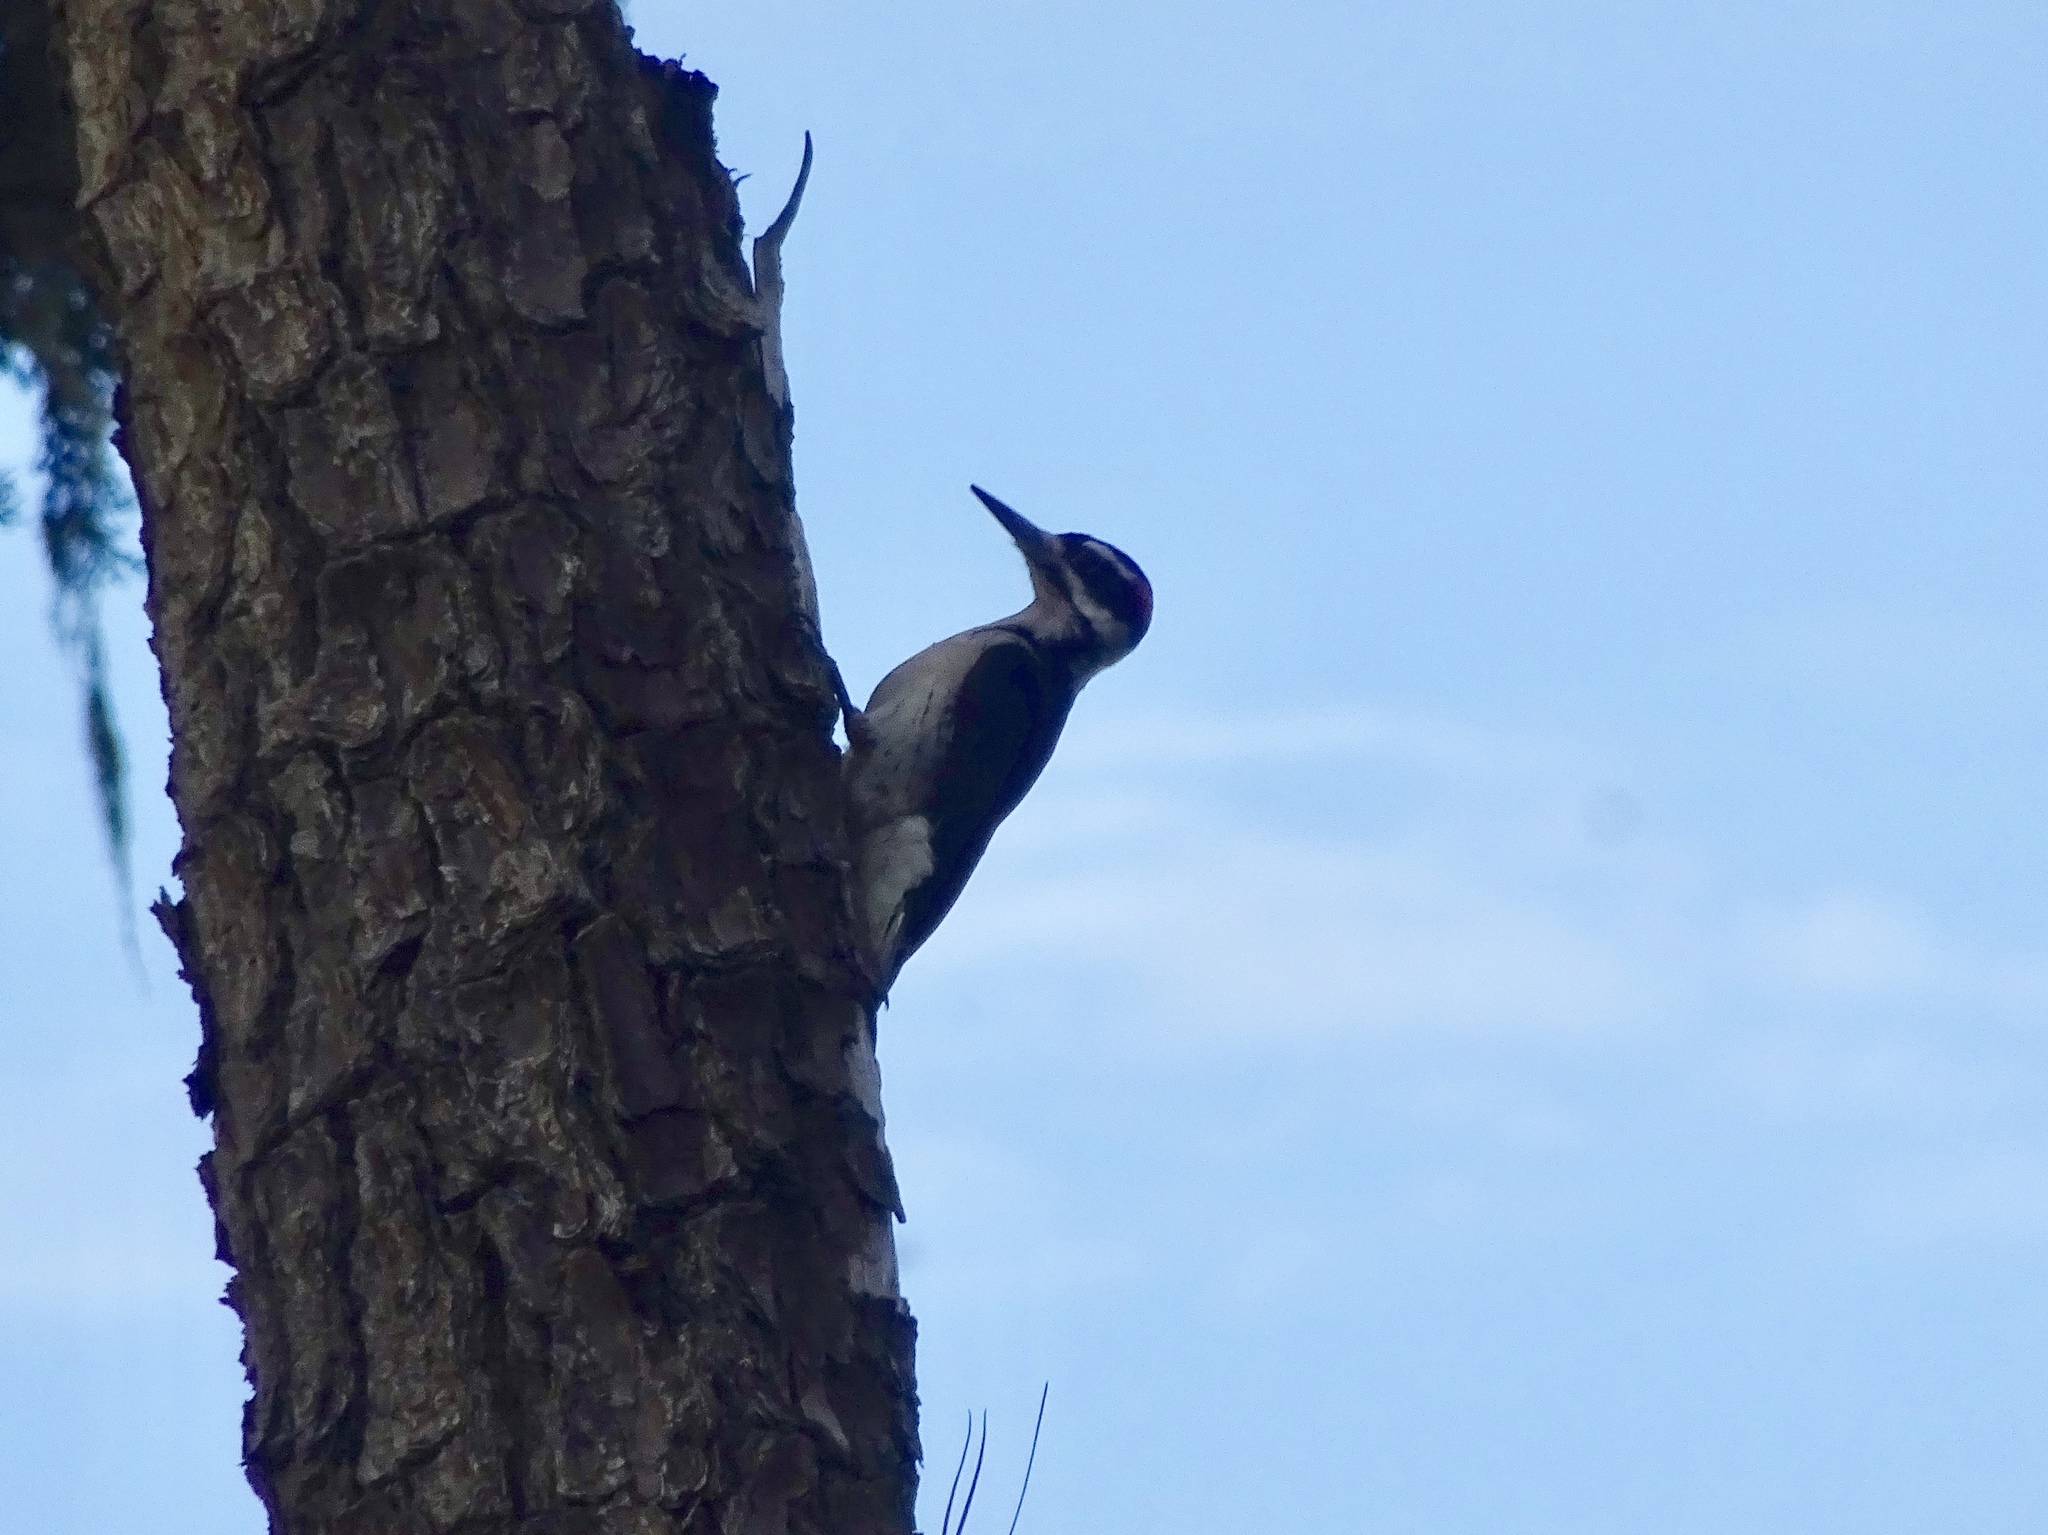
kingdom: Animalia
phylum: Chordata
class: Aves
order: Piciformes
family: Picidae
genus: Leuconotopicus
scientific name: Leuconotopicus villosus
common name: Hairy woodpecker
